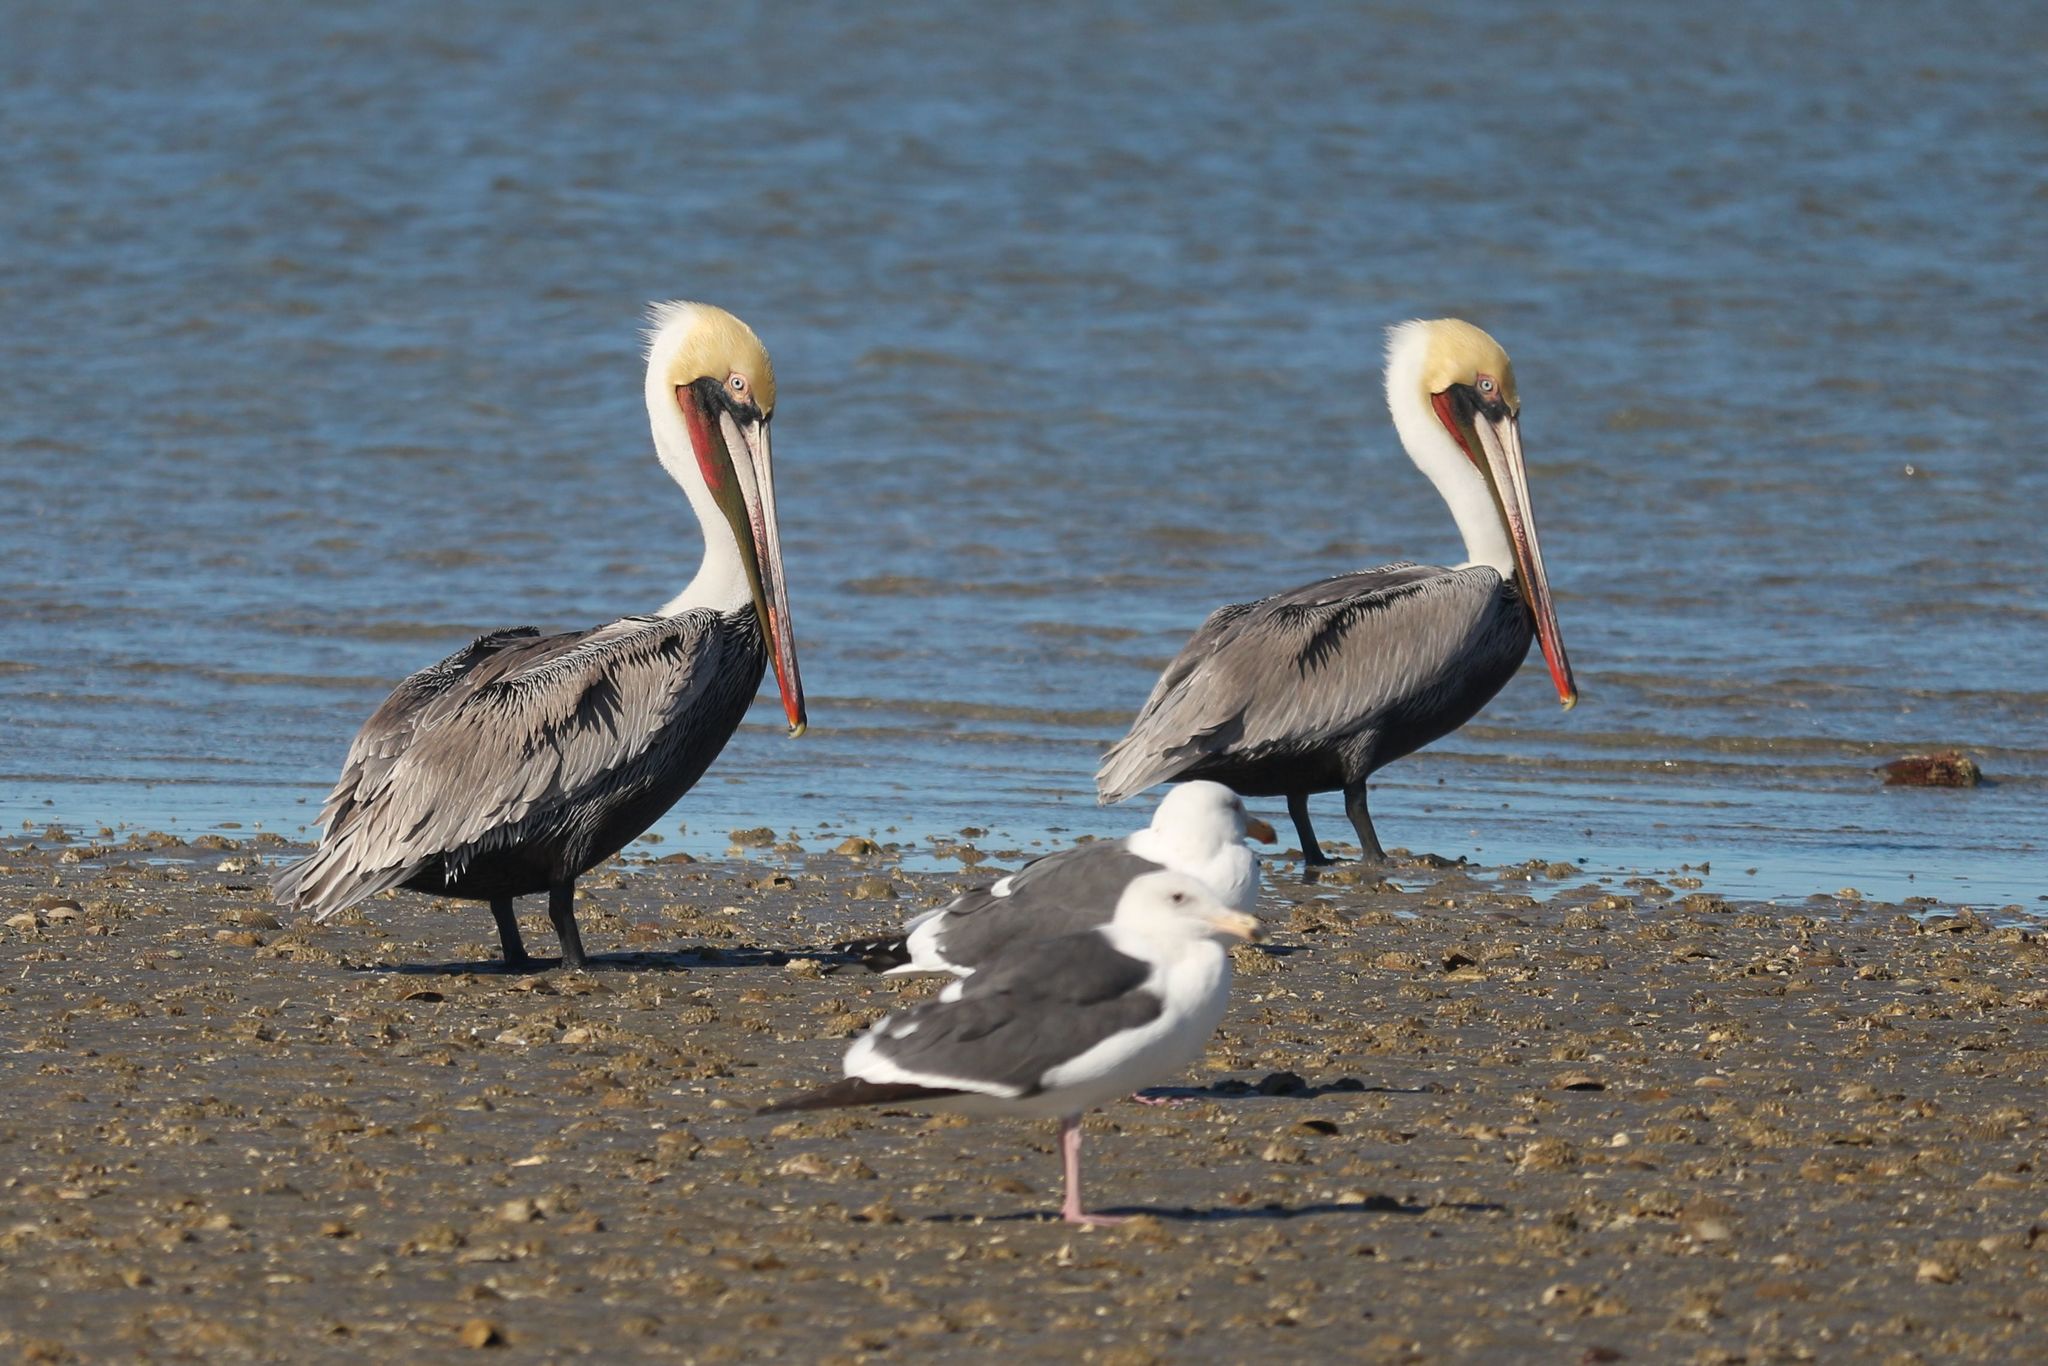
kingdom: Animalia
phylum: Chordata
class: Aves
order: Pelecaniformes
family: Pelecanidae
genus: Pelecanus
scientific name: Pelecanus occidentalis
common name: Brown pelican
